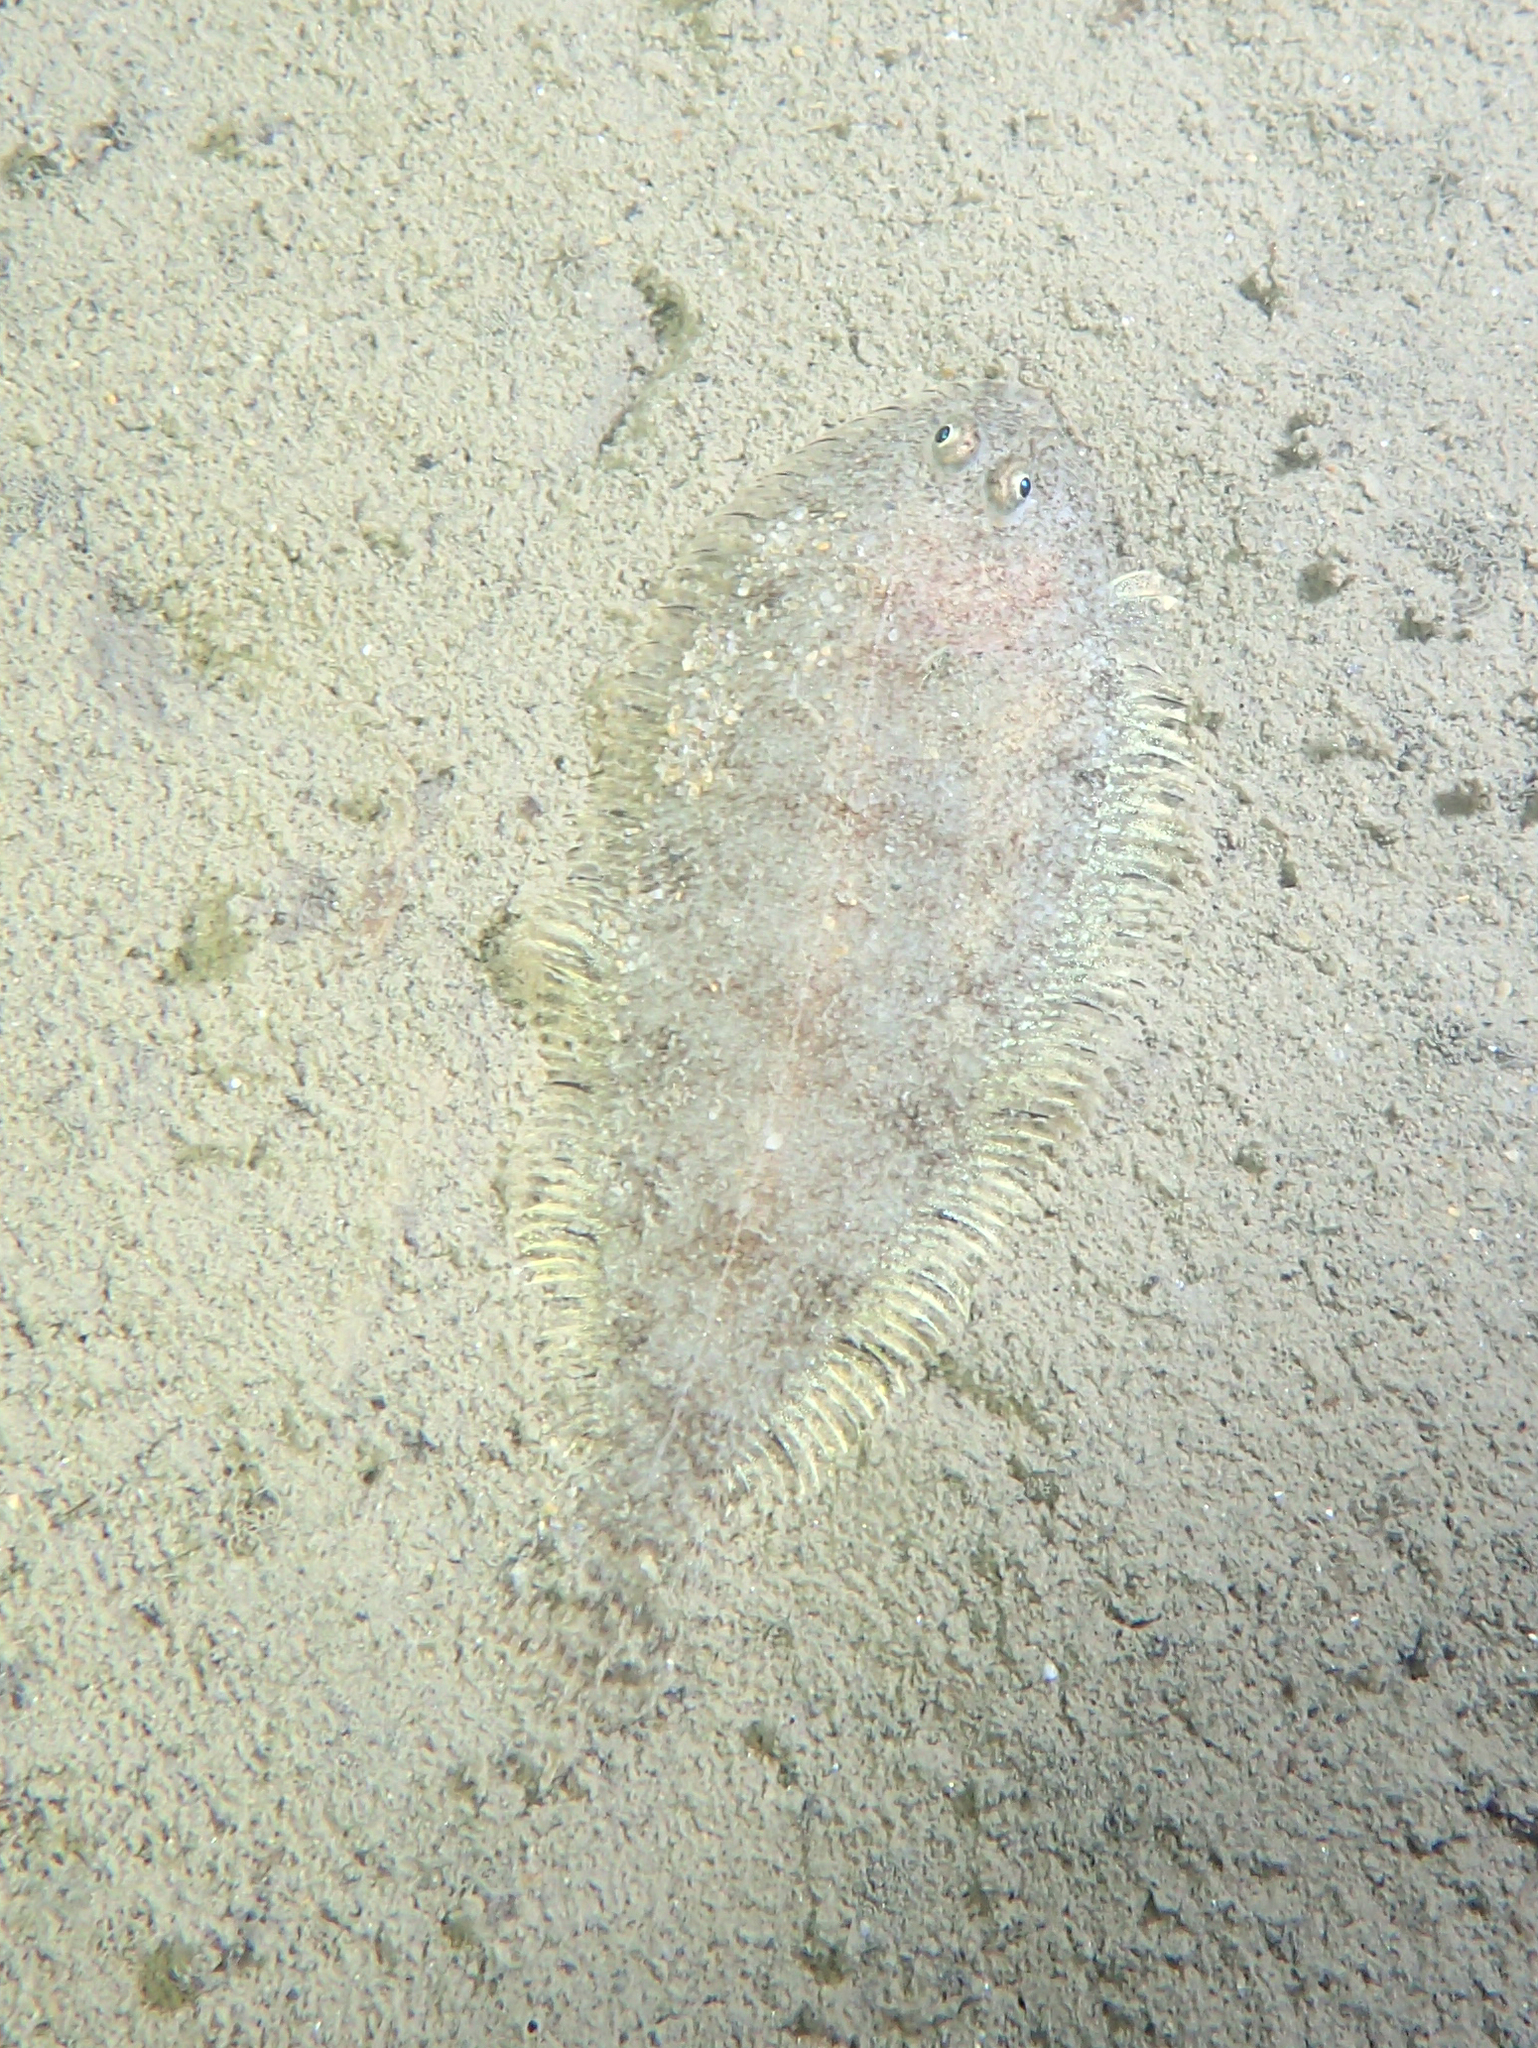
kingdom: Animalia
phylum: Chordata
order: Pleuronectiformes
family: Soleidae
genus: Buglossidium
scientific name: Buglossidium luteum
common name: Solenette
